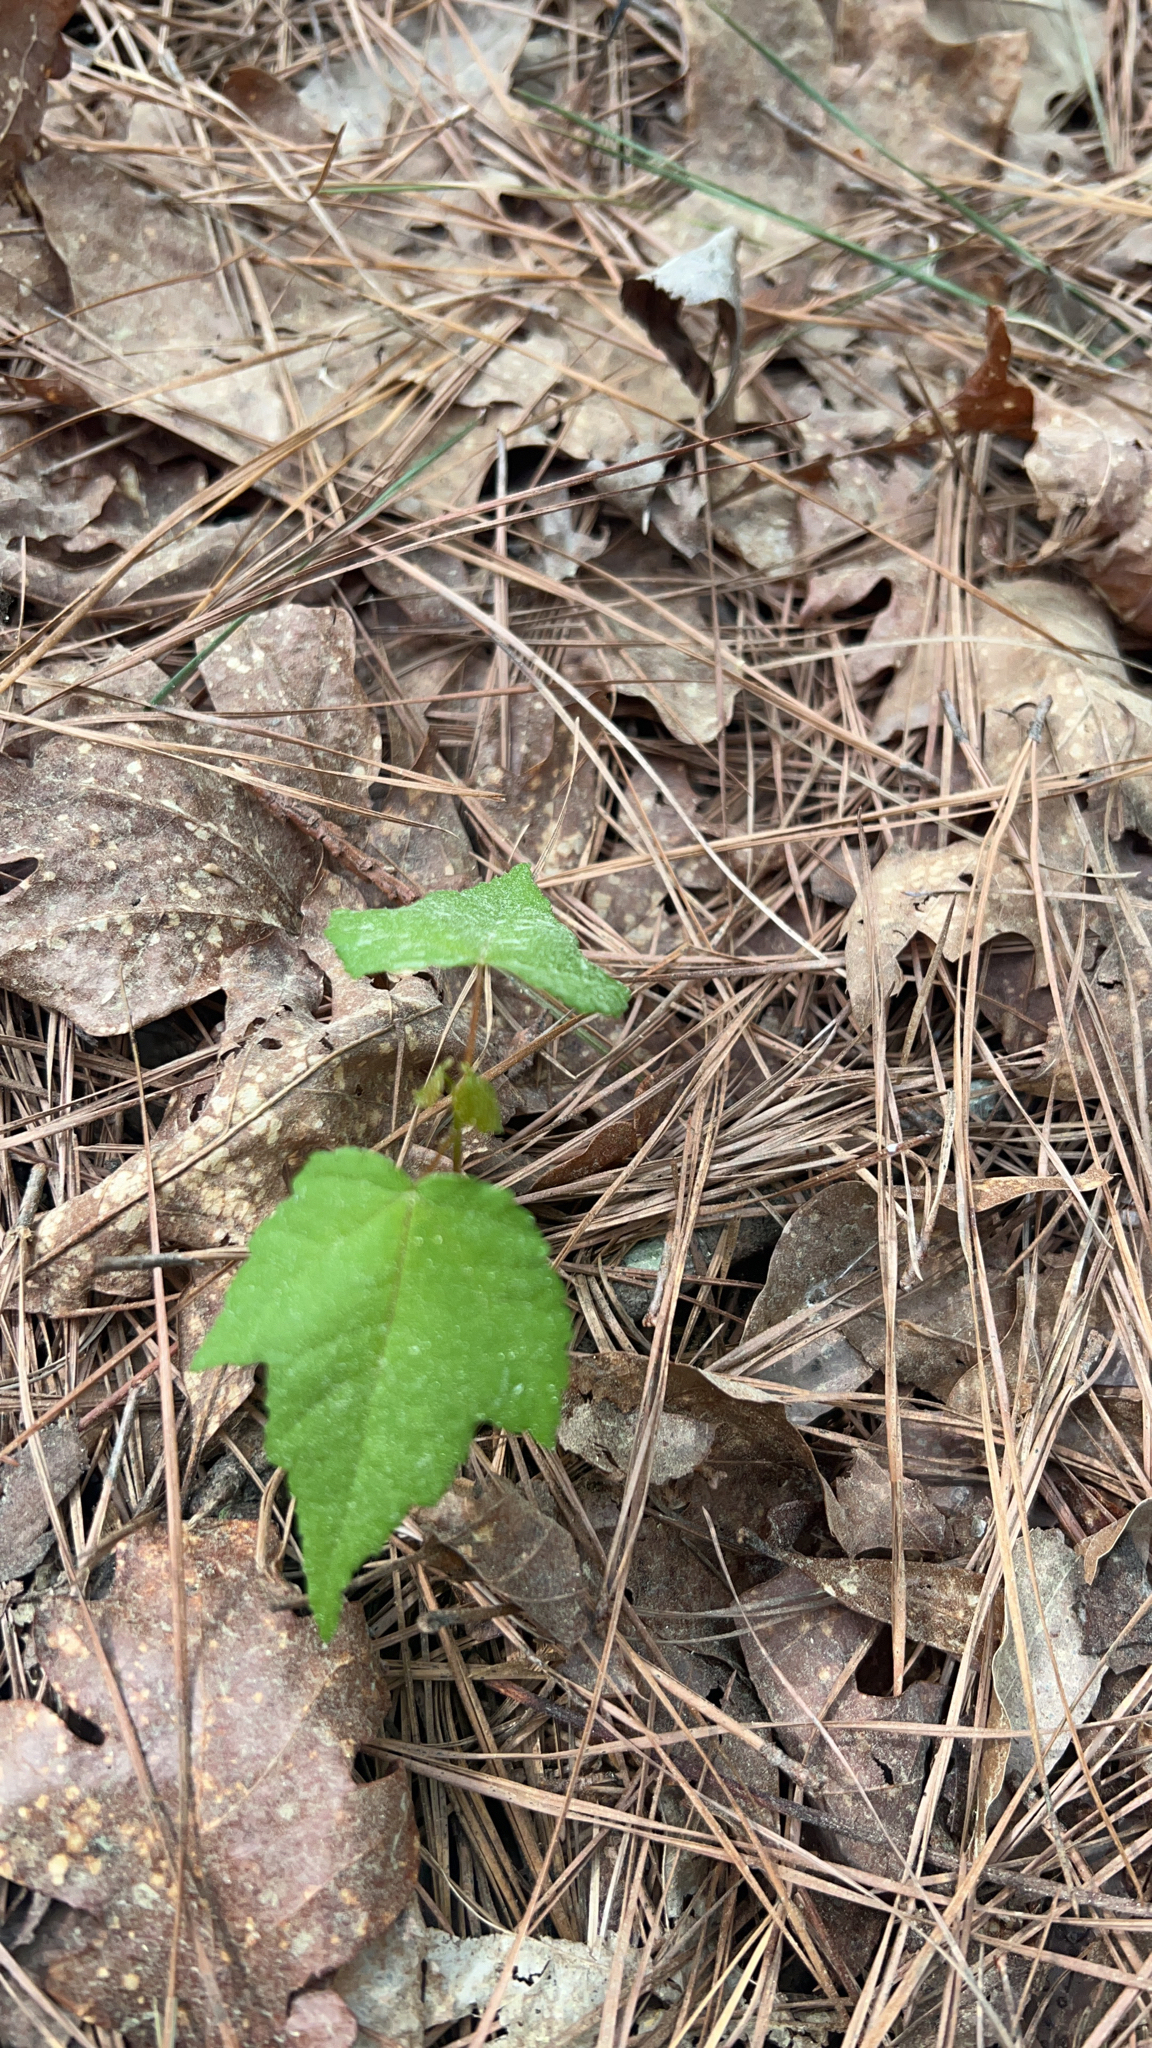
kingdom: Plantae
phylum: Tracheophyta
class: Magnoliopsida
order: Sapindales
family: Sapindaceae
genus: Acer
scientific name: Acer rubrum
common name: Red maple
